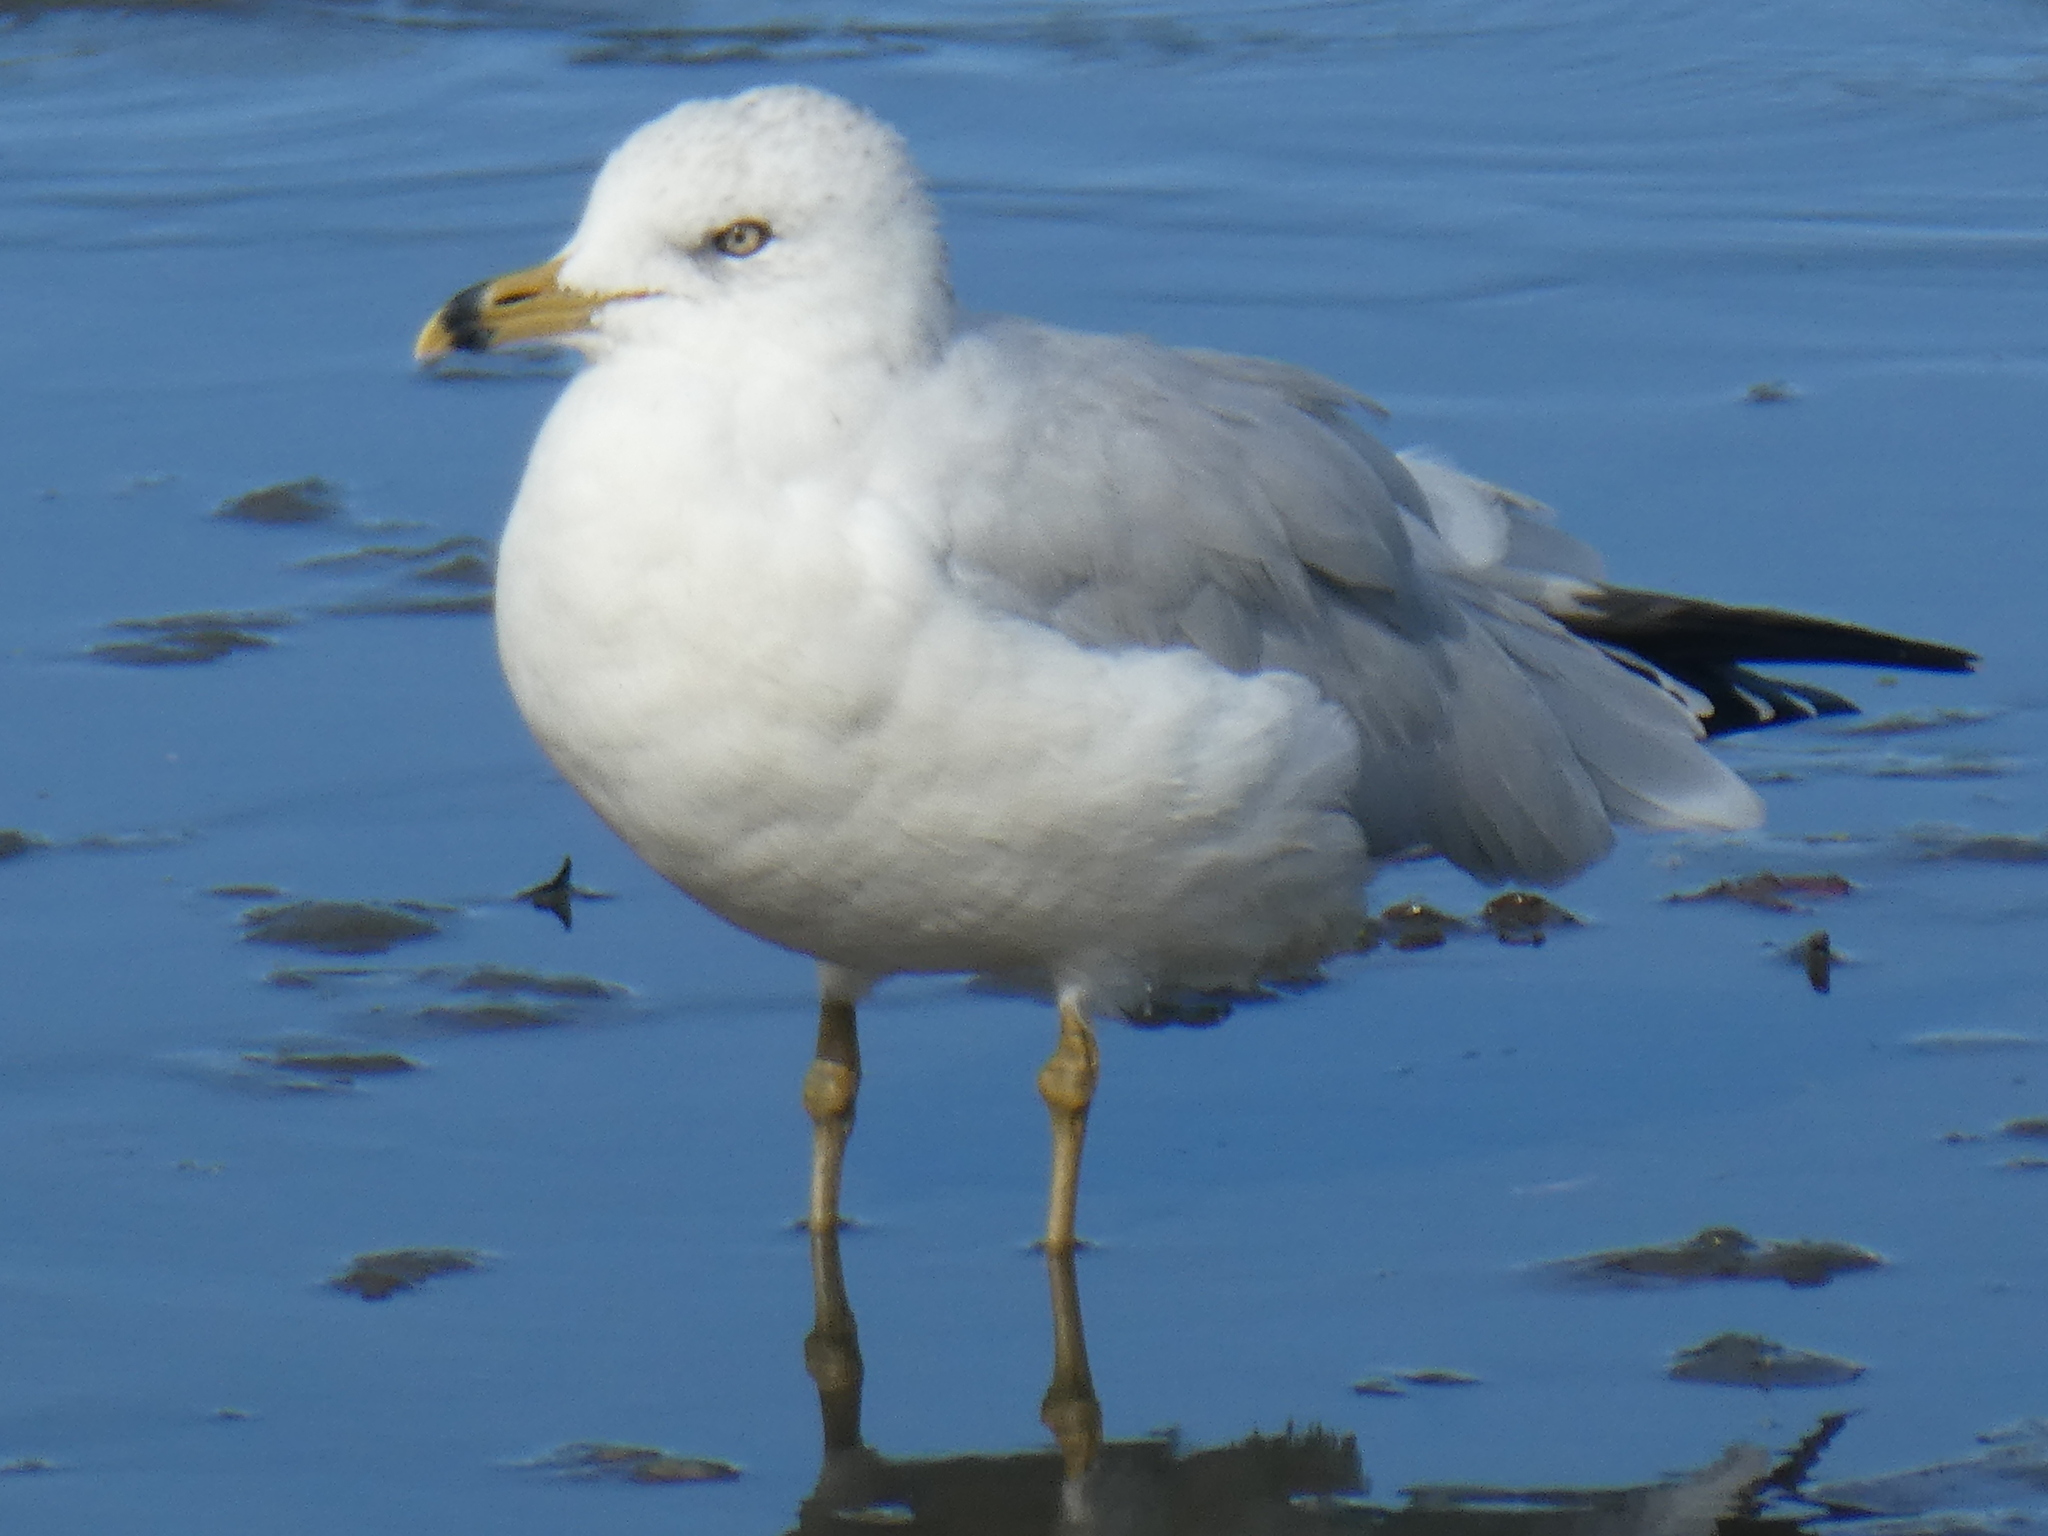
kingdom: Animalia
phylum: Chordata
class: Aves
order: Charadriiformes
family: Laridae
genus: Larus
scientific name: Larus delawarensis
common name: Ring-billed gull
